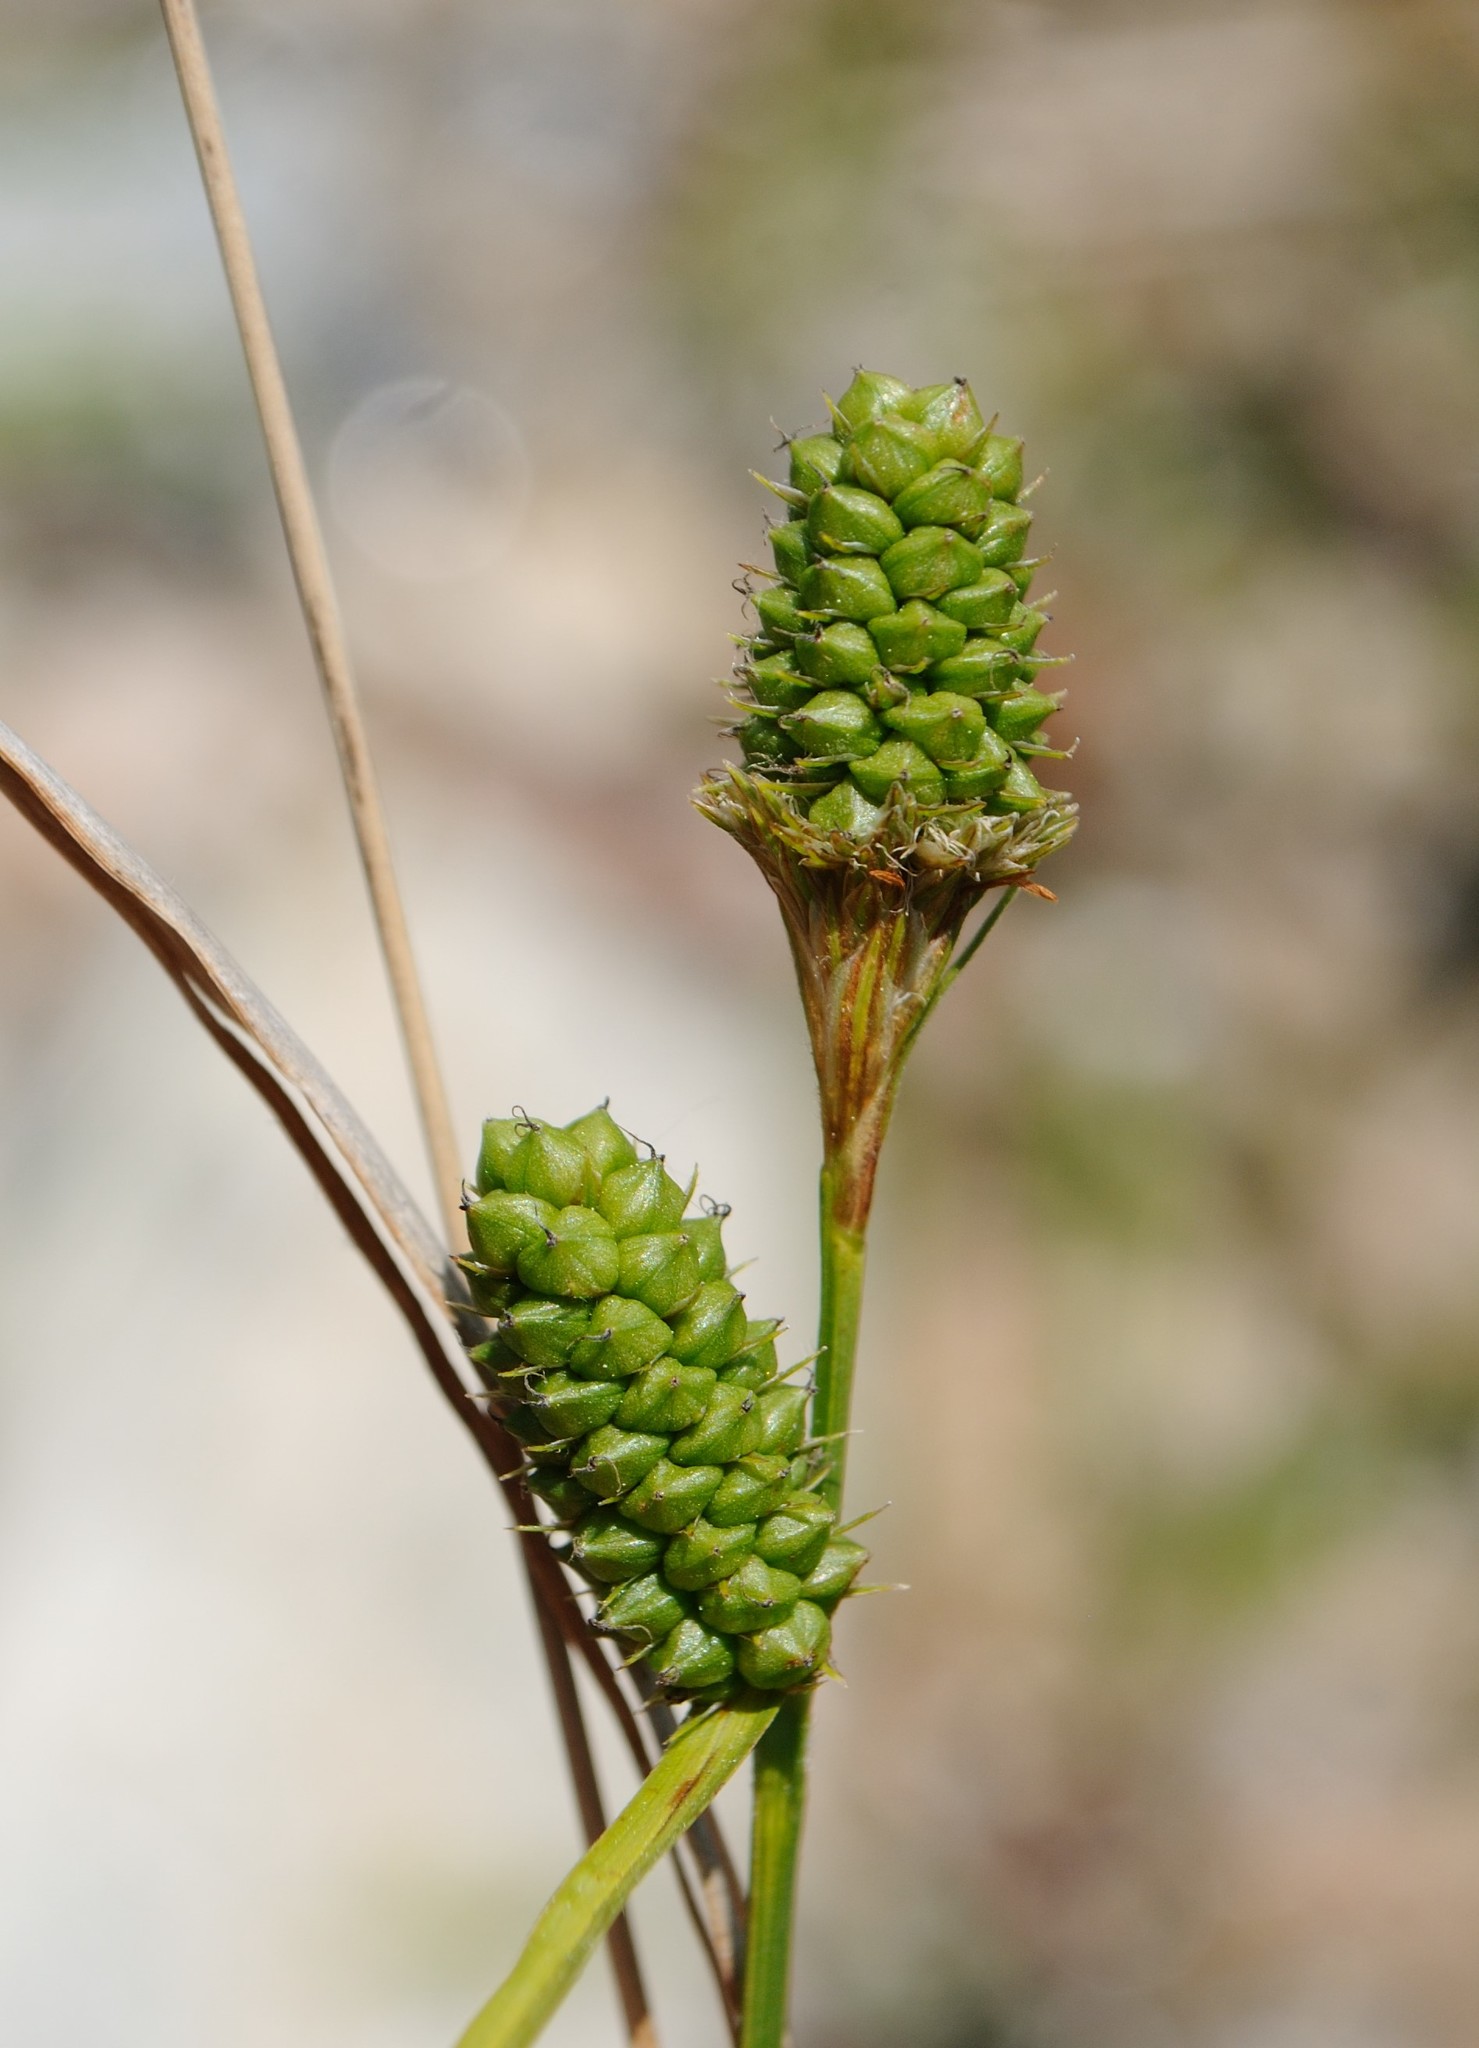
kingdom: Plantae
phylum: Tracheophyta
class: Liliopsida
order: Poales
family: Cyperaceae
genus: Carex
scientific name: Carex bushii
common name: Bush's sedge
